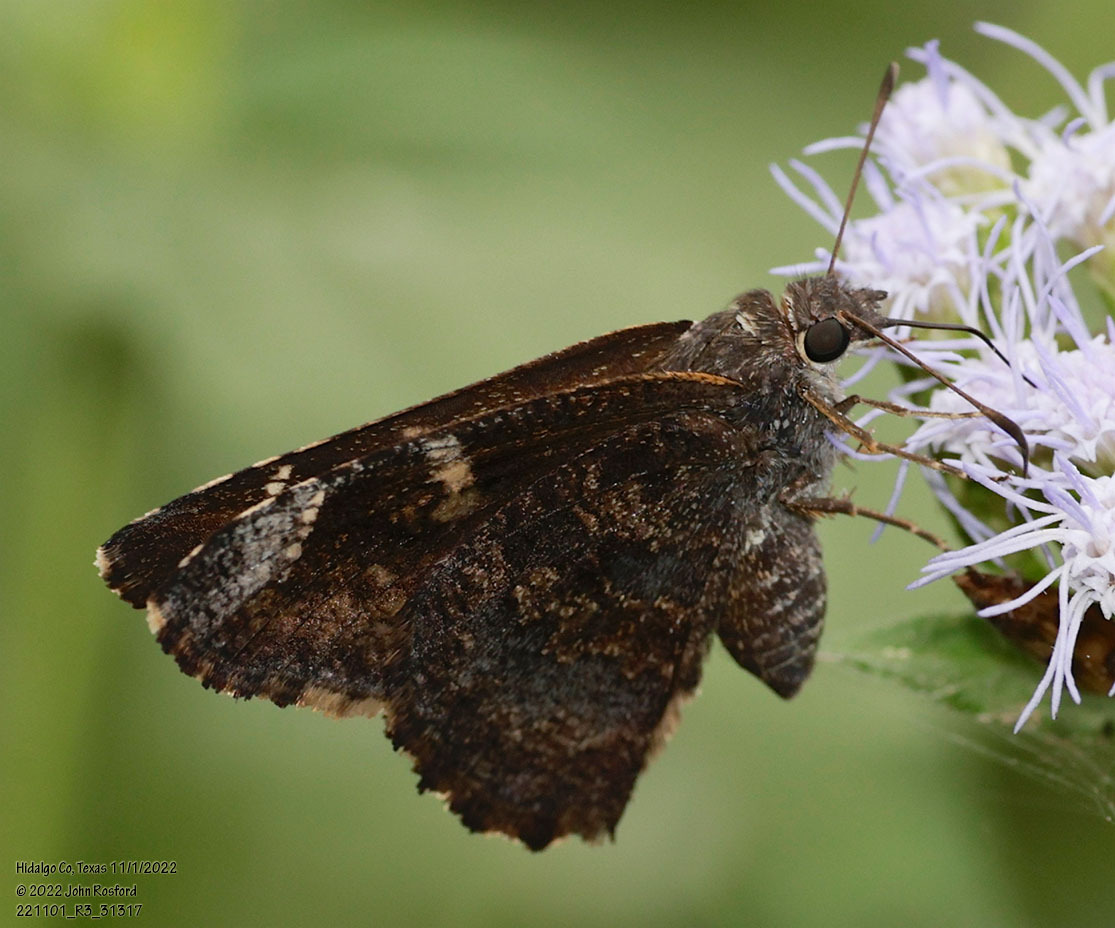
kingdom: Animalia
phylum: Arthropoda
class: Insecta
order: Lepidoptera
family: Hesperiidae
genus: Caicella
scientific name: Caicella calchas
